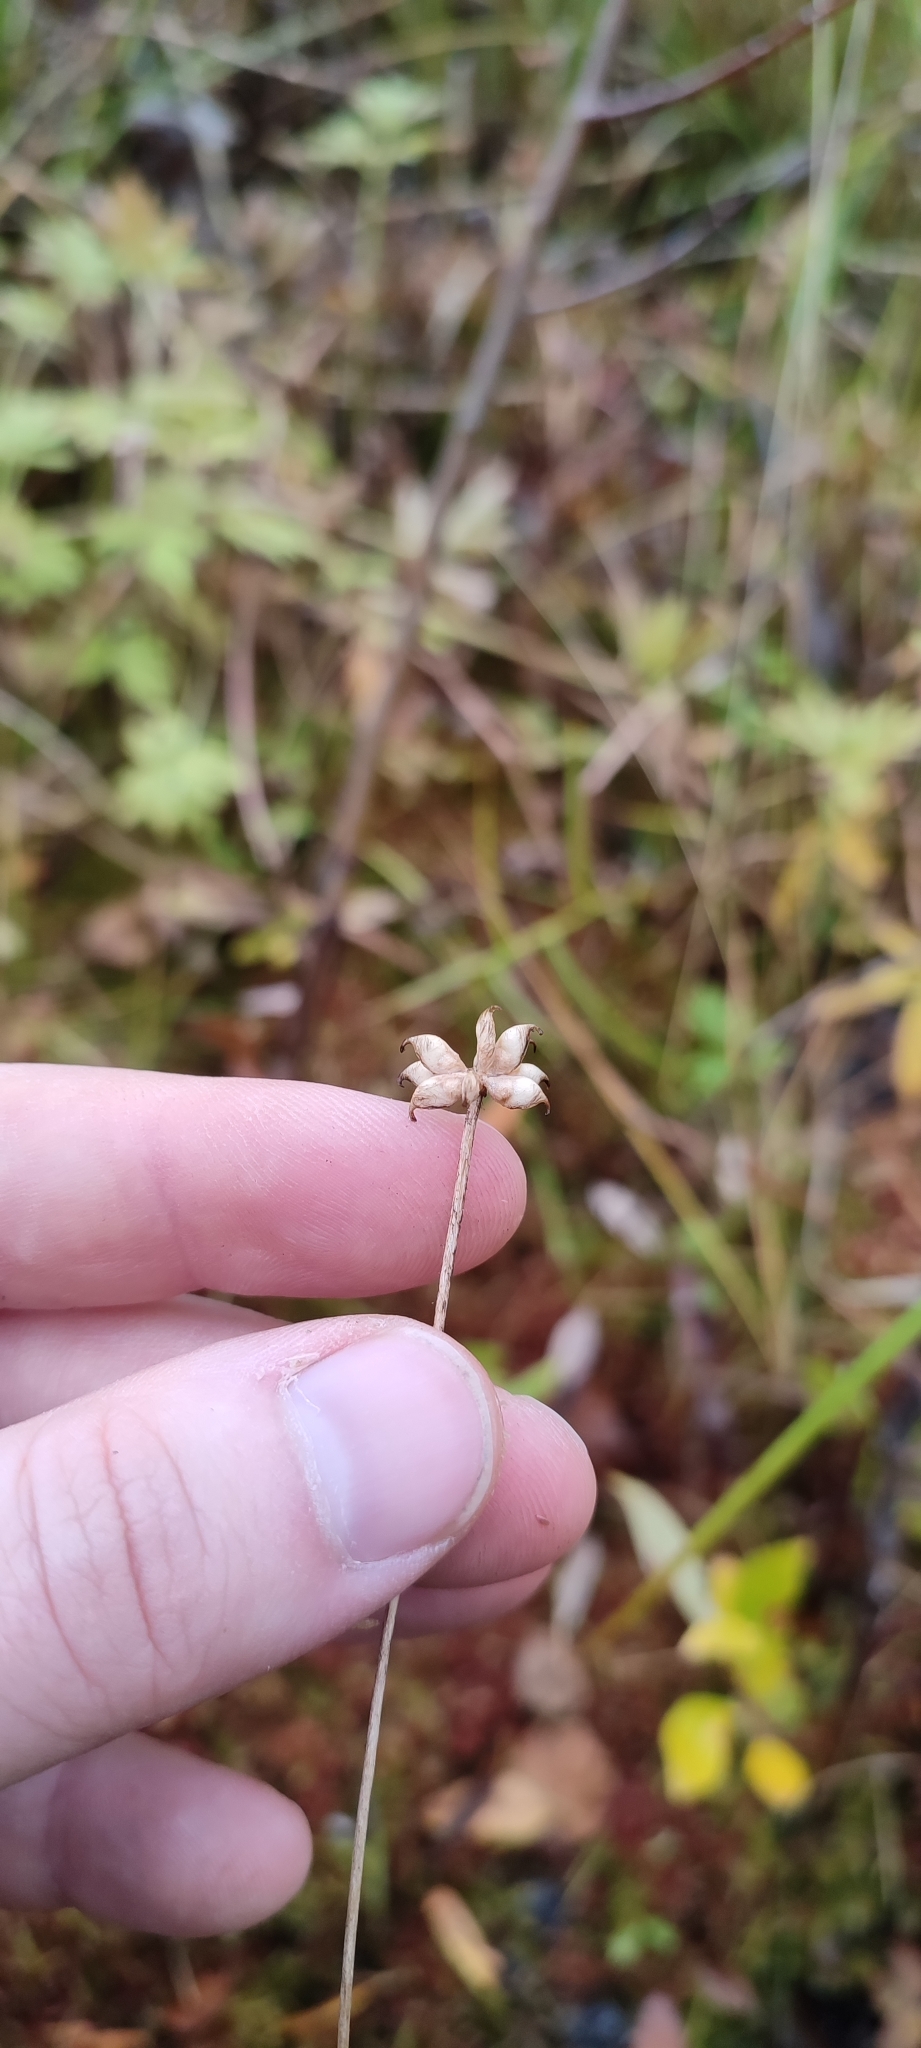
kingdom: Plantae
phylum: Tracheophyta
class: Magnoliopsida
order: Ranunculales
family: Ranunculaceae
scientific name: Ranunculaceae
